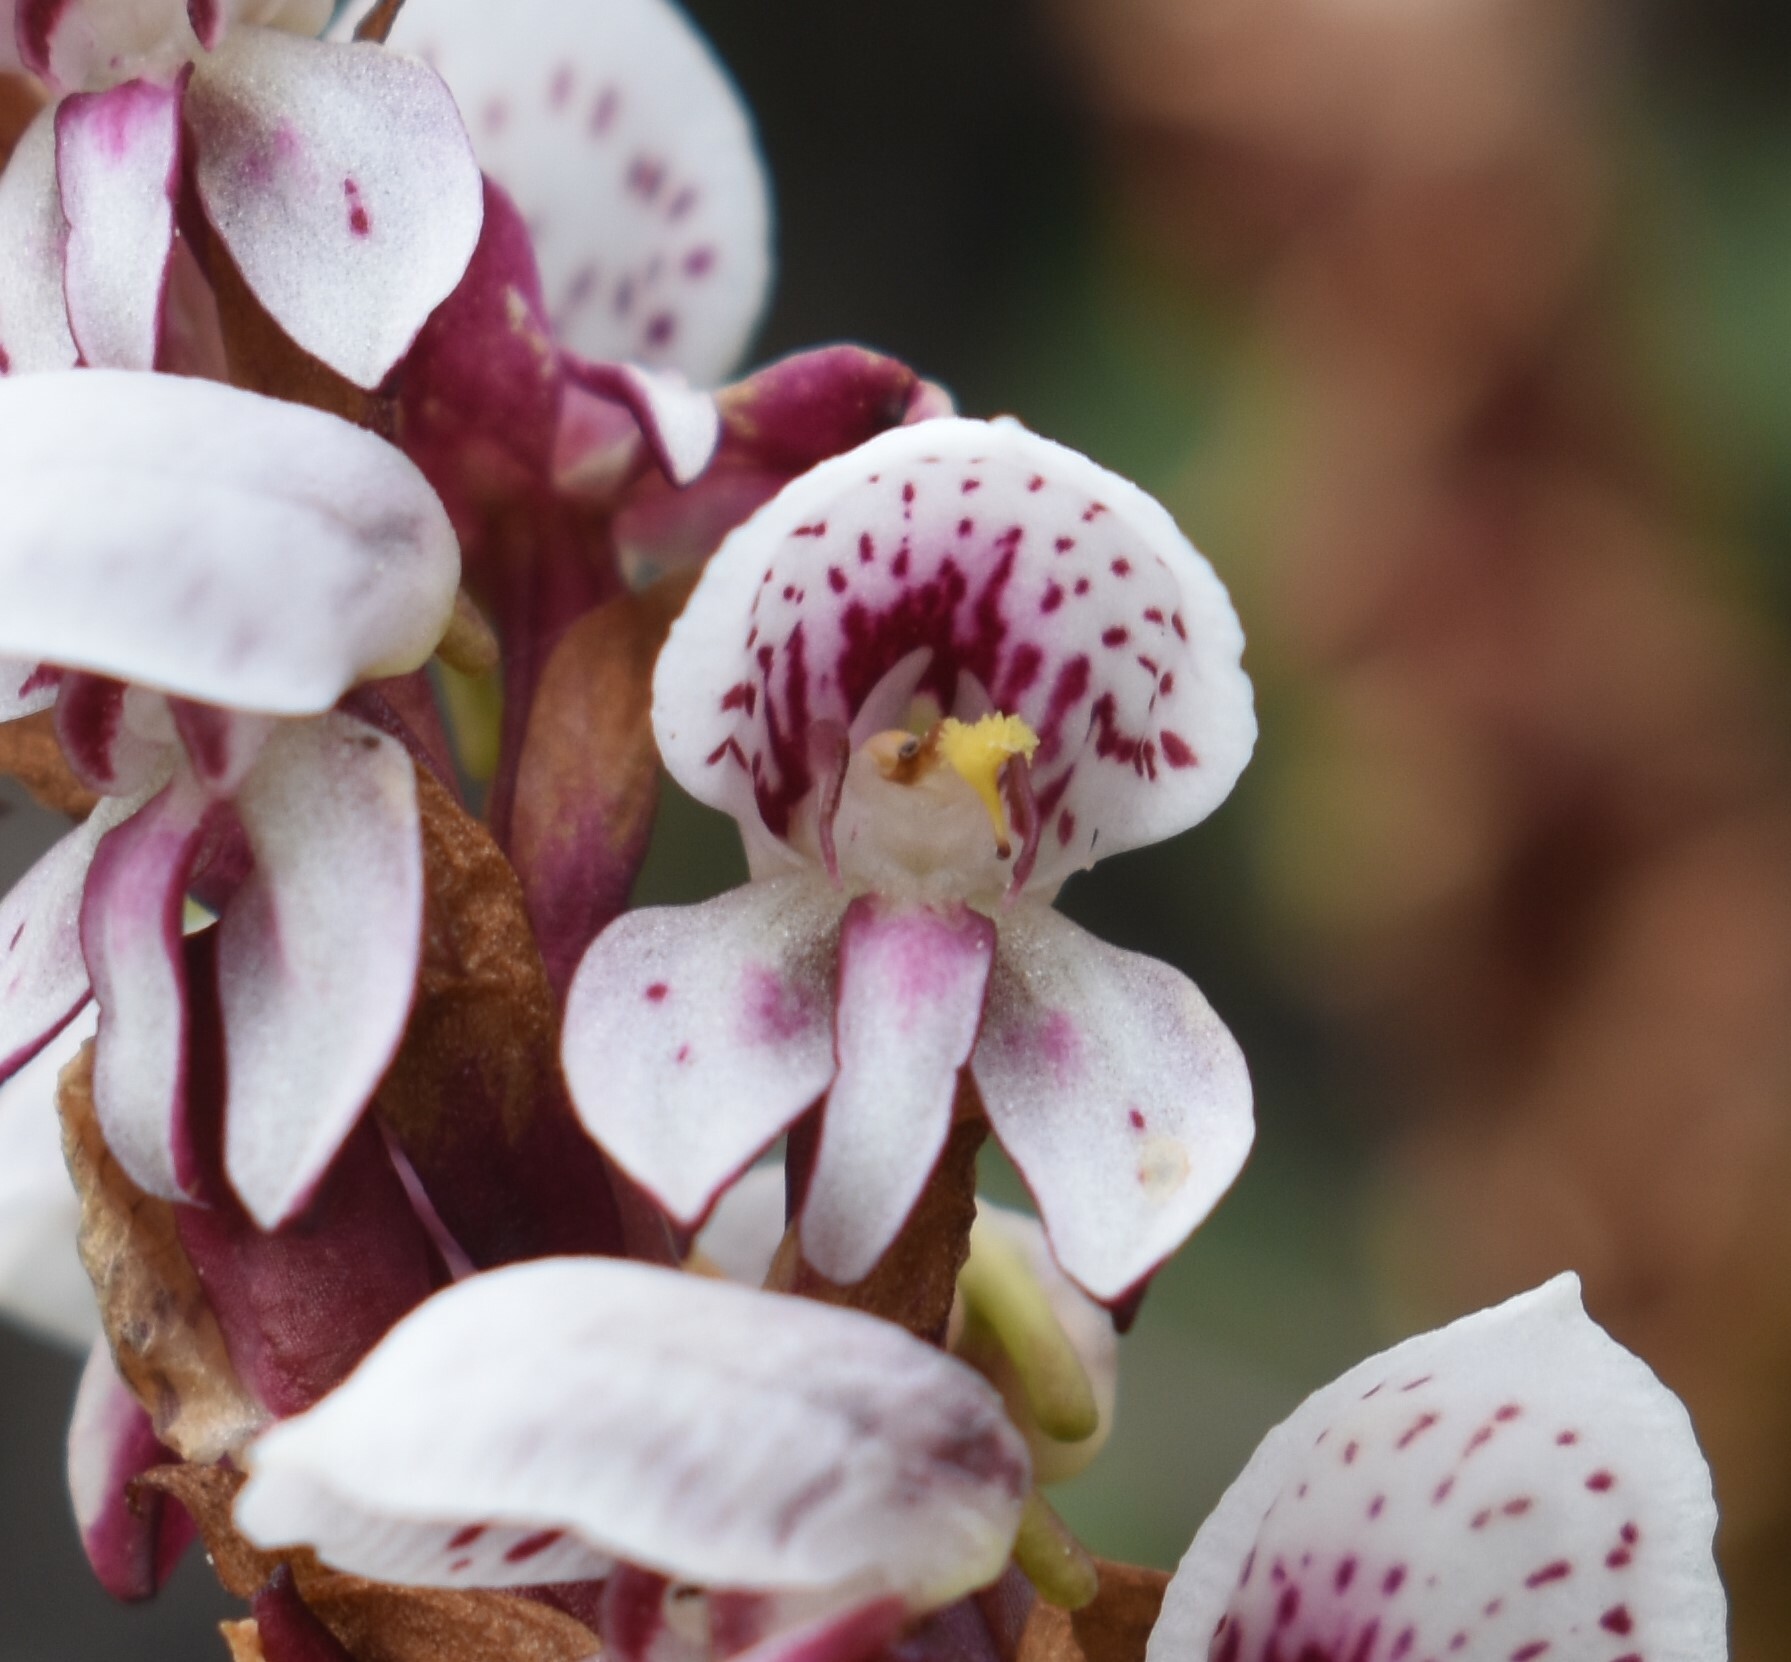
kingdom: Plantae
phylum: Tracheophyta
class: Liliopsida
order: Asparagales
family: Orchidaceae
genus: Disa
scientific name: Disa tenuicornis
